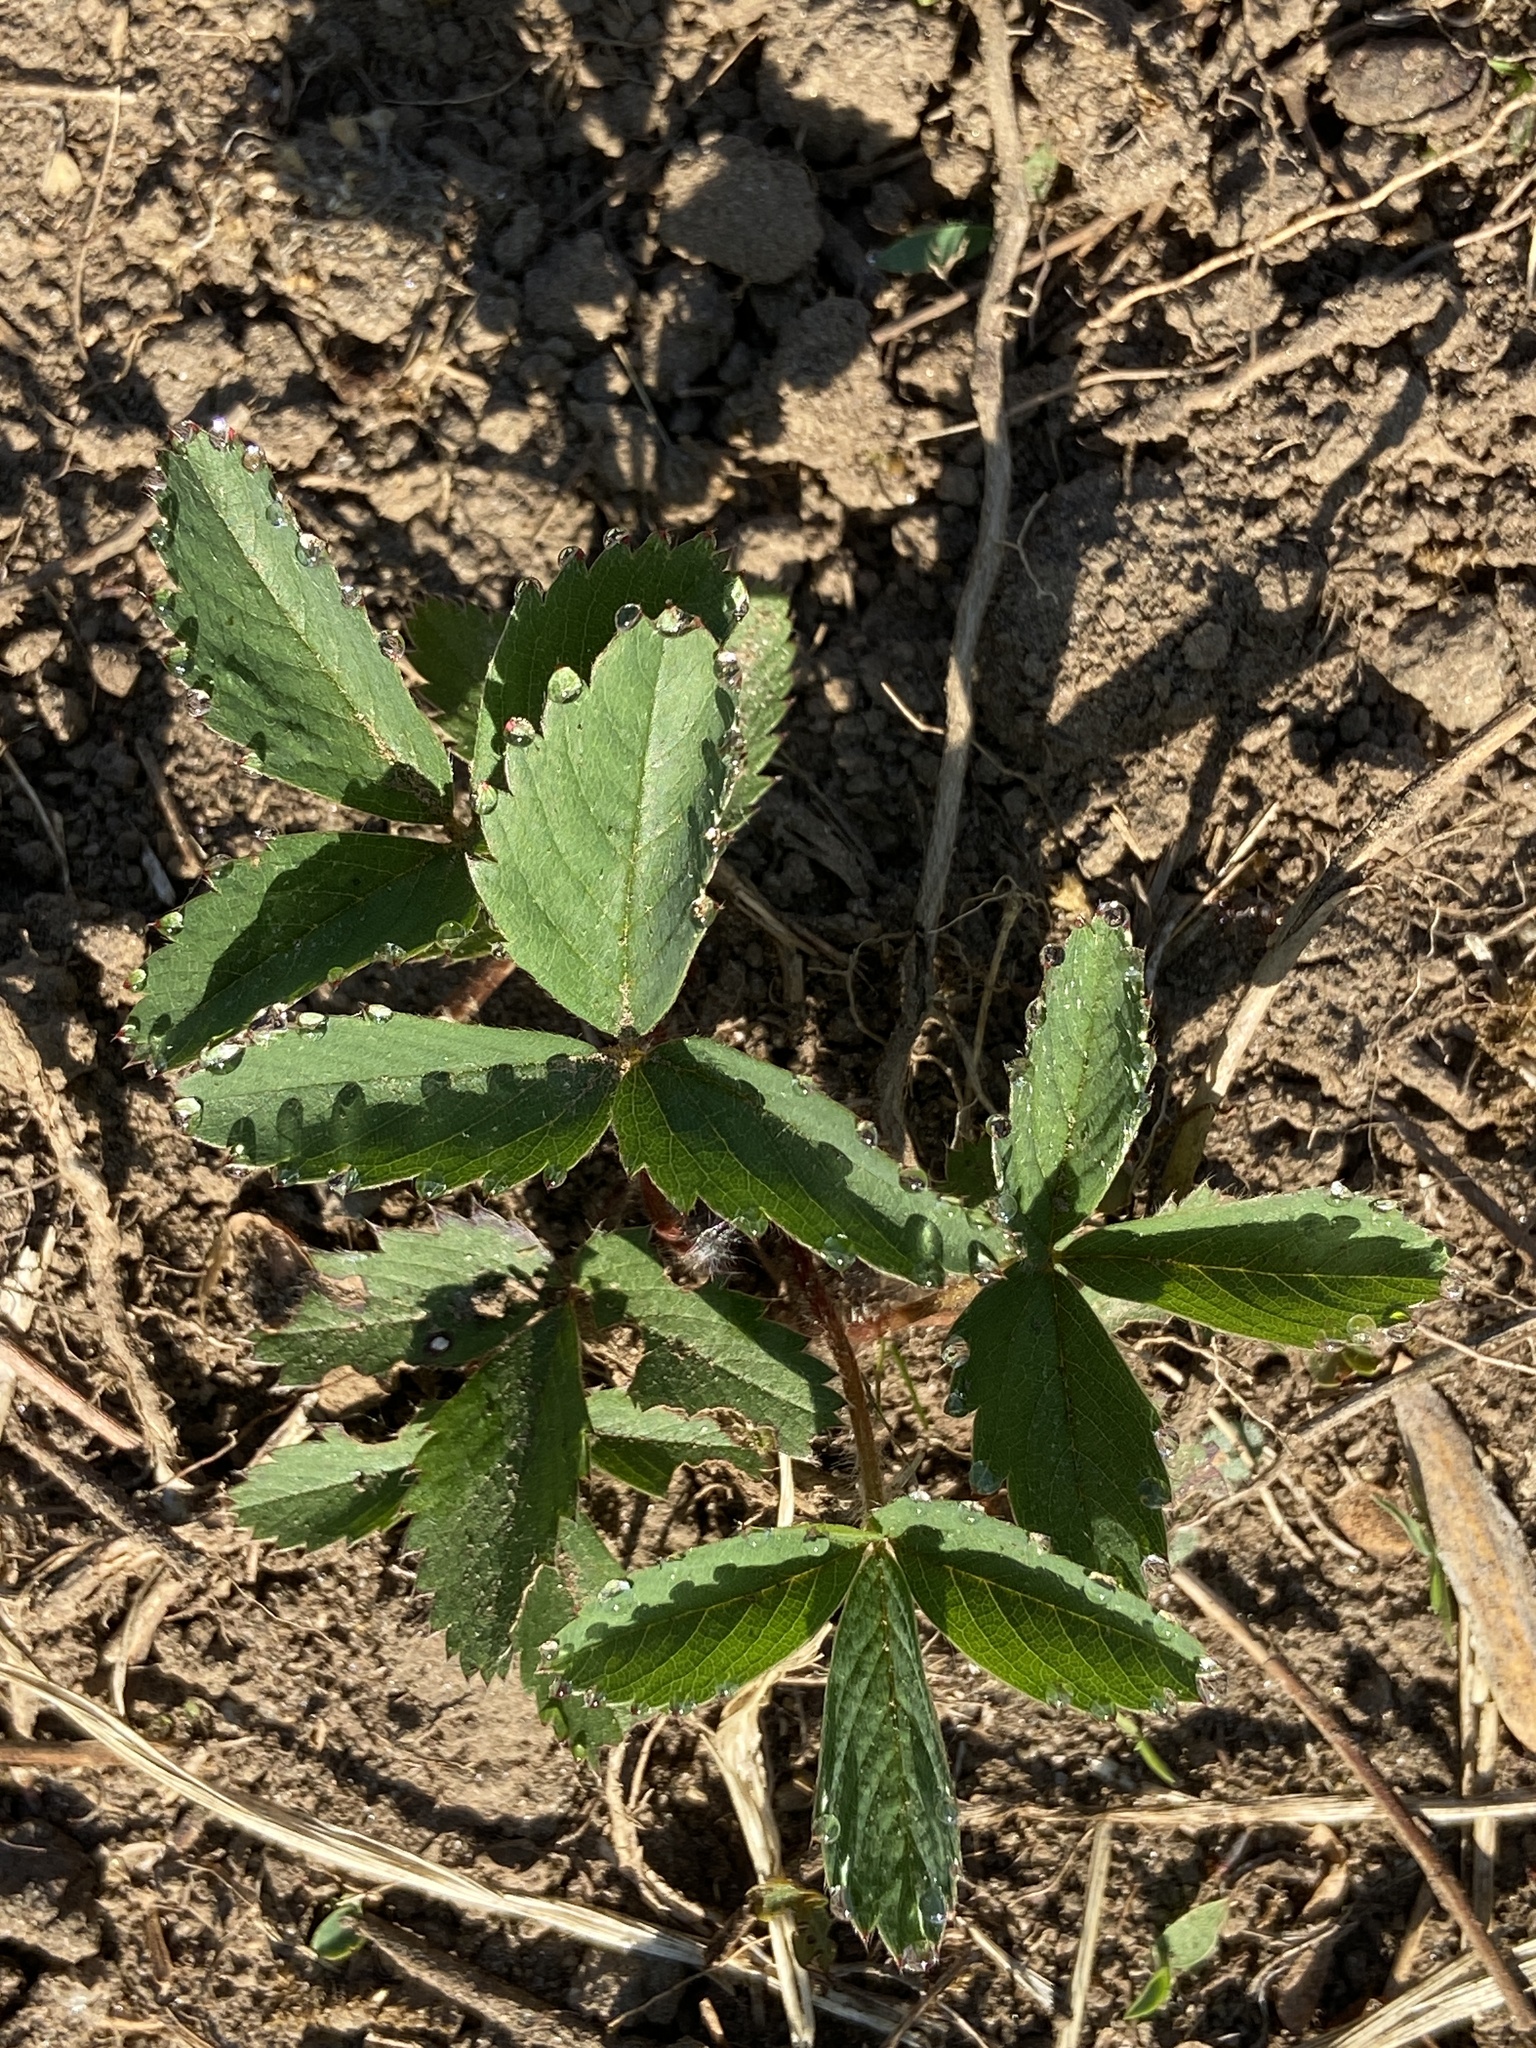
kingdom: Plantae
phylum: Tracheophyta
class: Magnoliopsida
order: Rosales
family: Rosaceae
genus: Fragaria
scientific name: Fragaria virginiana
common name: Thickleaved wild strawberry
